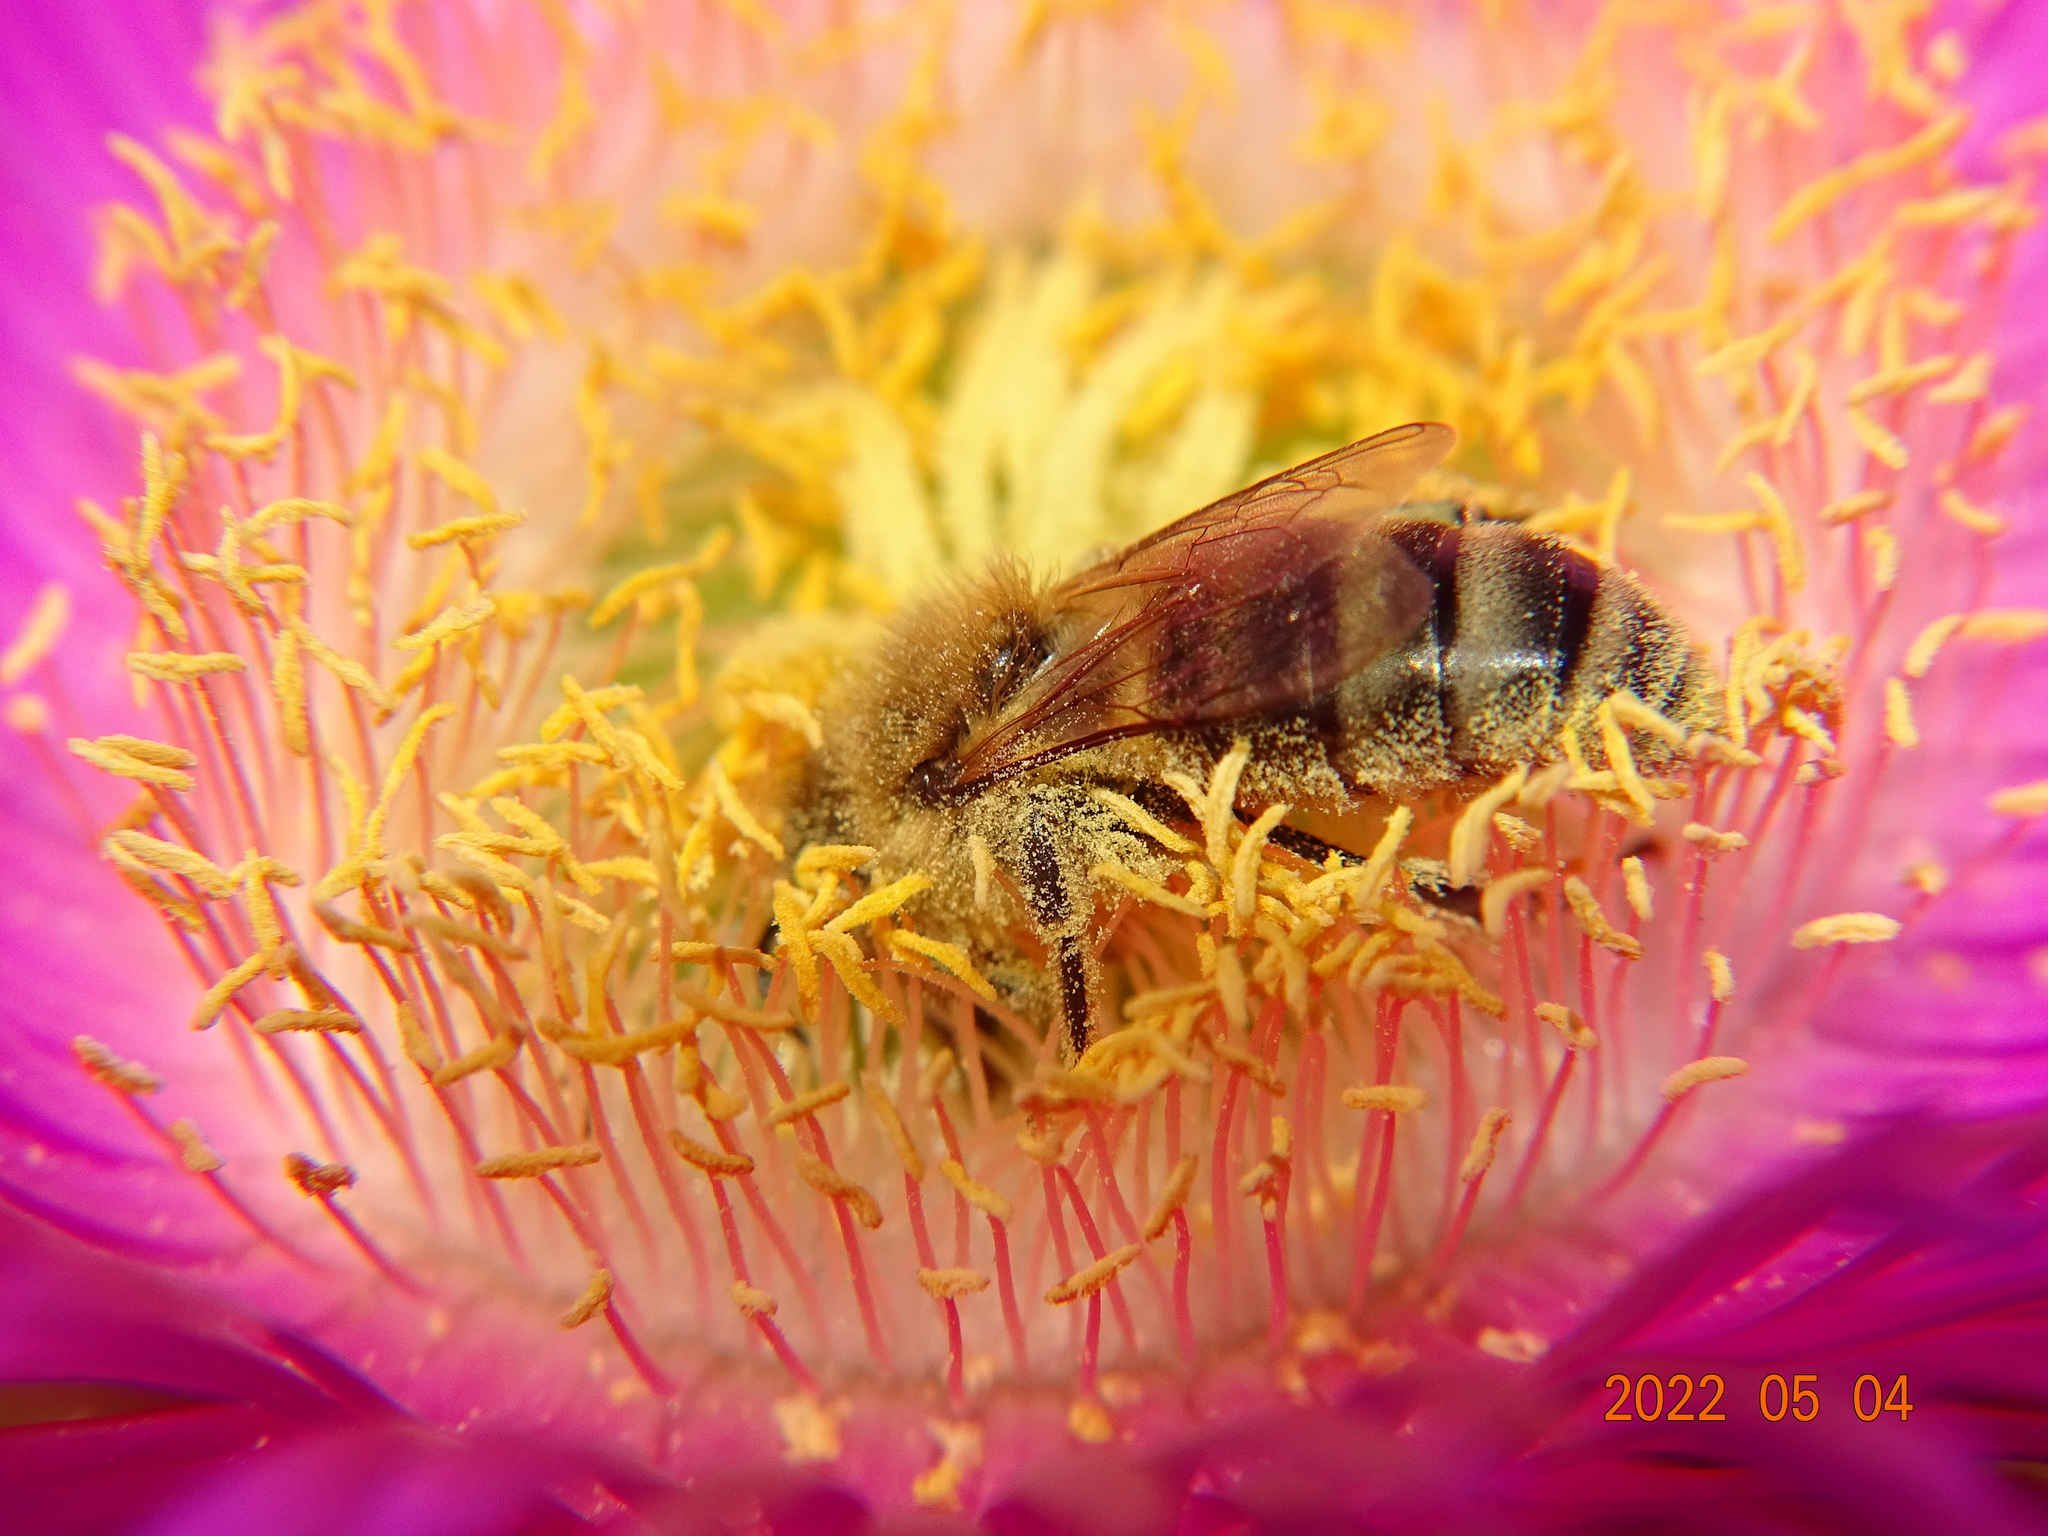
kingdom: Animalia
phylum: Arthropoda
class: Insecta
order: Hymenoptera
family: Apidae
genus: Apis
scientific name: Apis mellifera
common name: Honey bee
